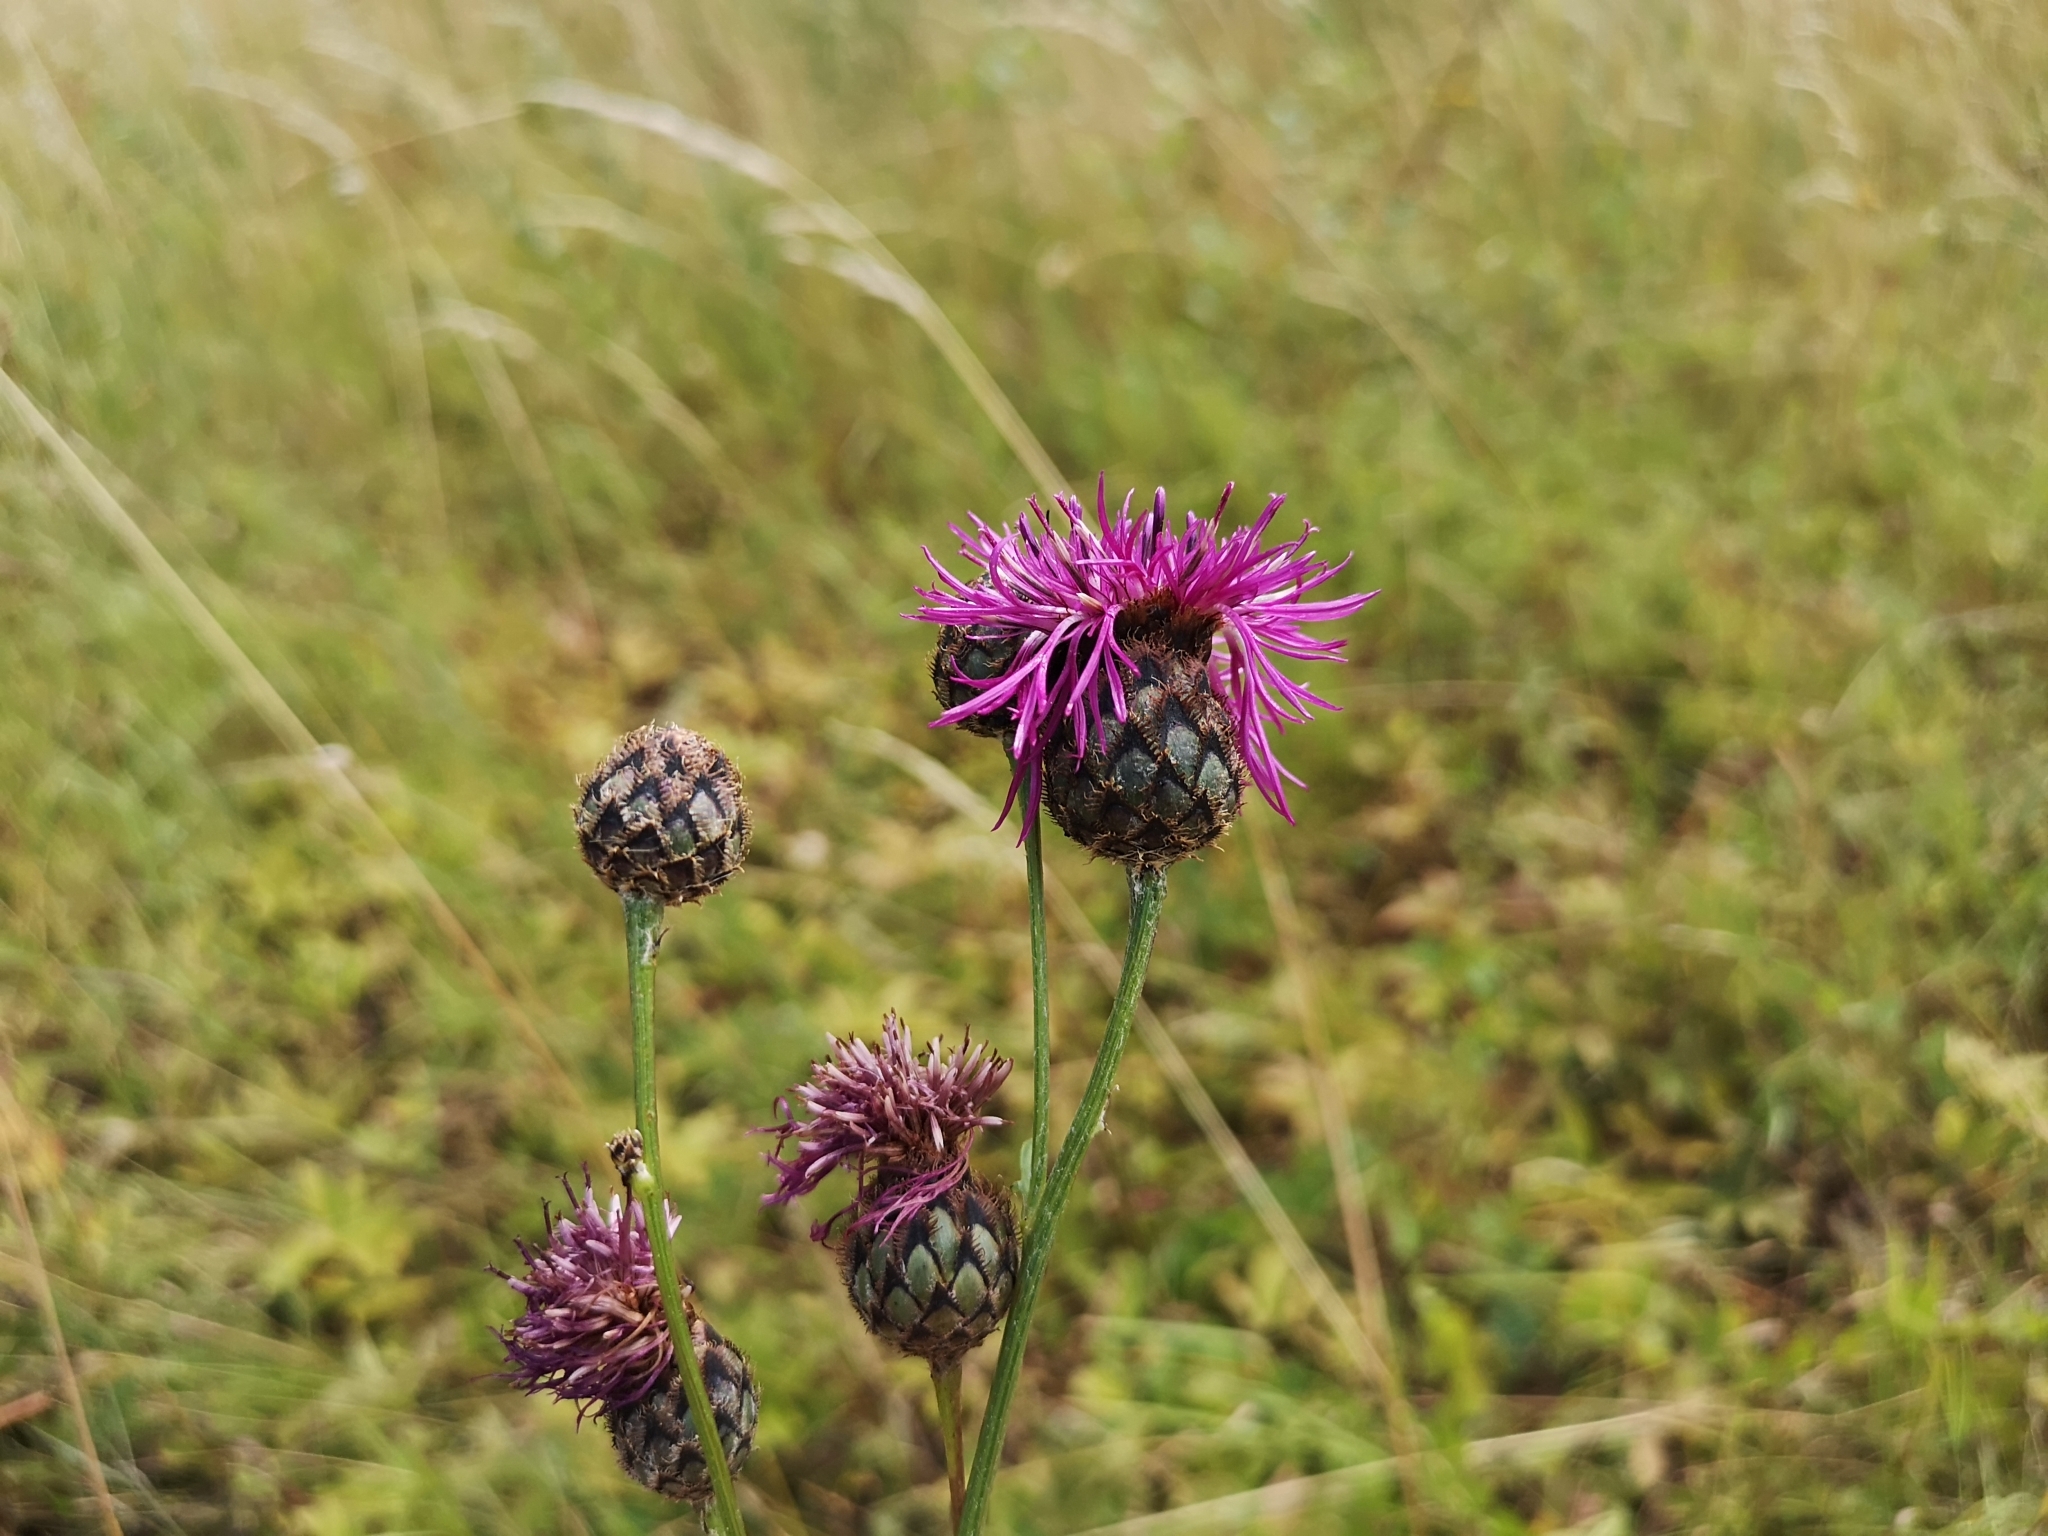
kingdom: Plantae
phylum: Tracheophyta
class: Magnoliopsida
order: Asterales
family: Asteraceae
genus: Centaurea
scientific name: Centaurea scabiosa
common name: Greater knapweed
